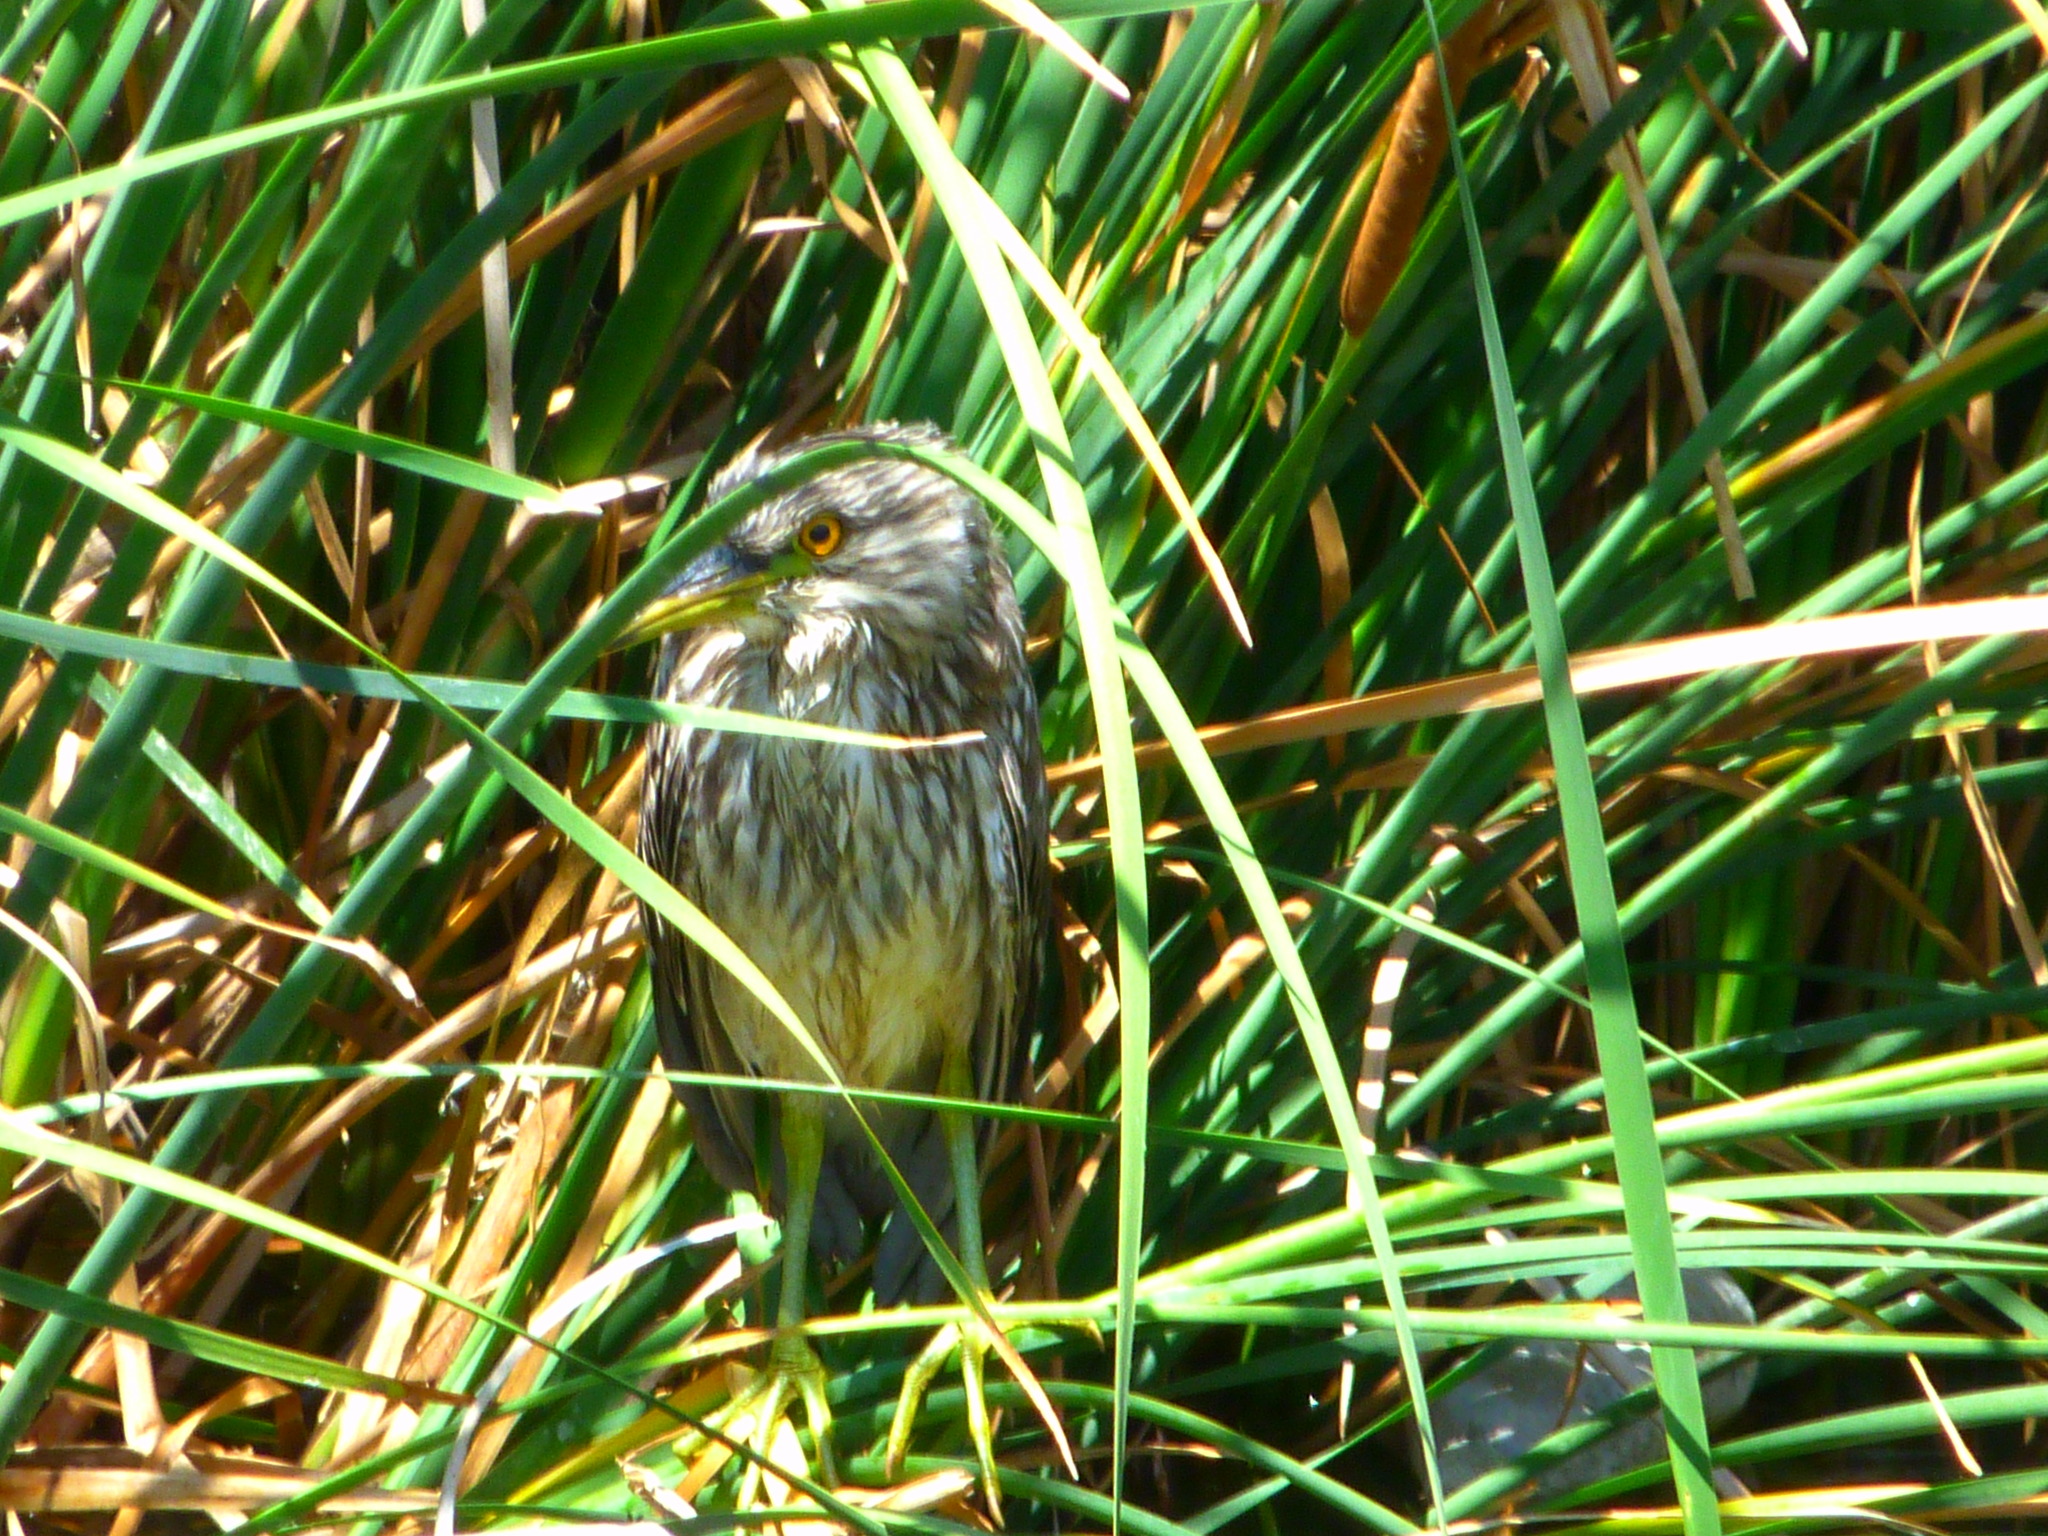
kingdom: Animalia
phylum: Chordata
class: Aves
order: Pelecaniformes
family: Ardeidae
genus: Nycticorax
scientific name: Nycticorax nycticorax
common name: Black-crowned night heron
